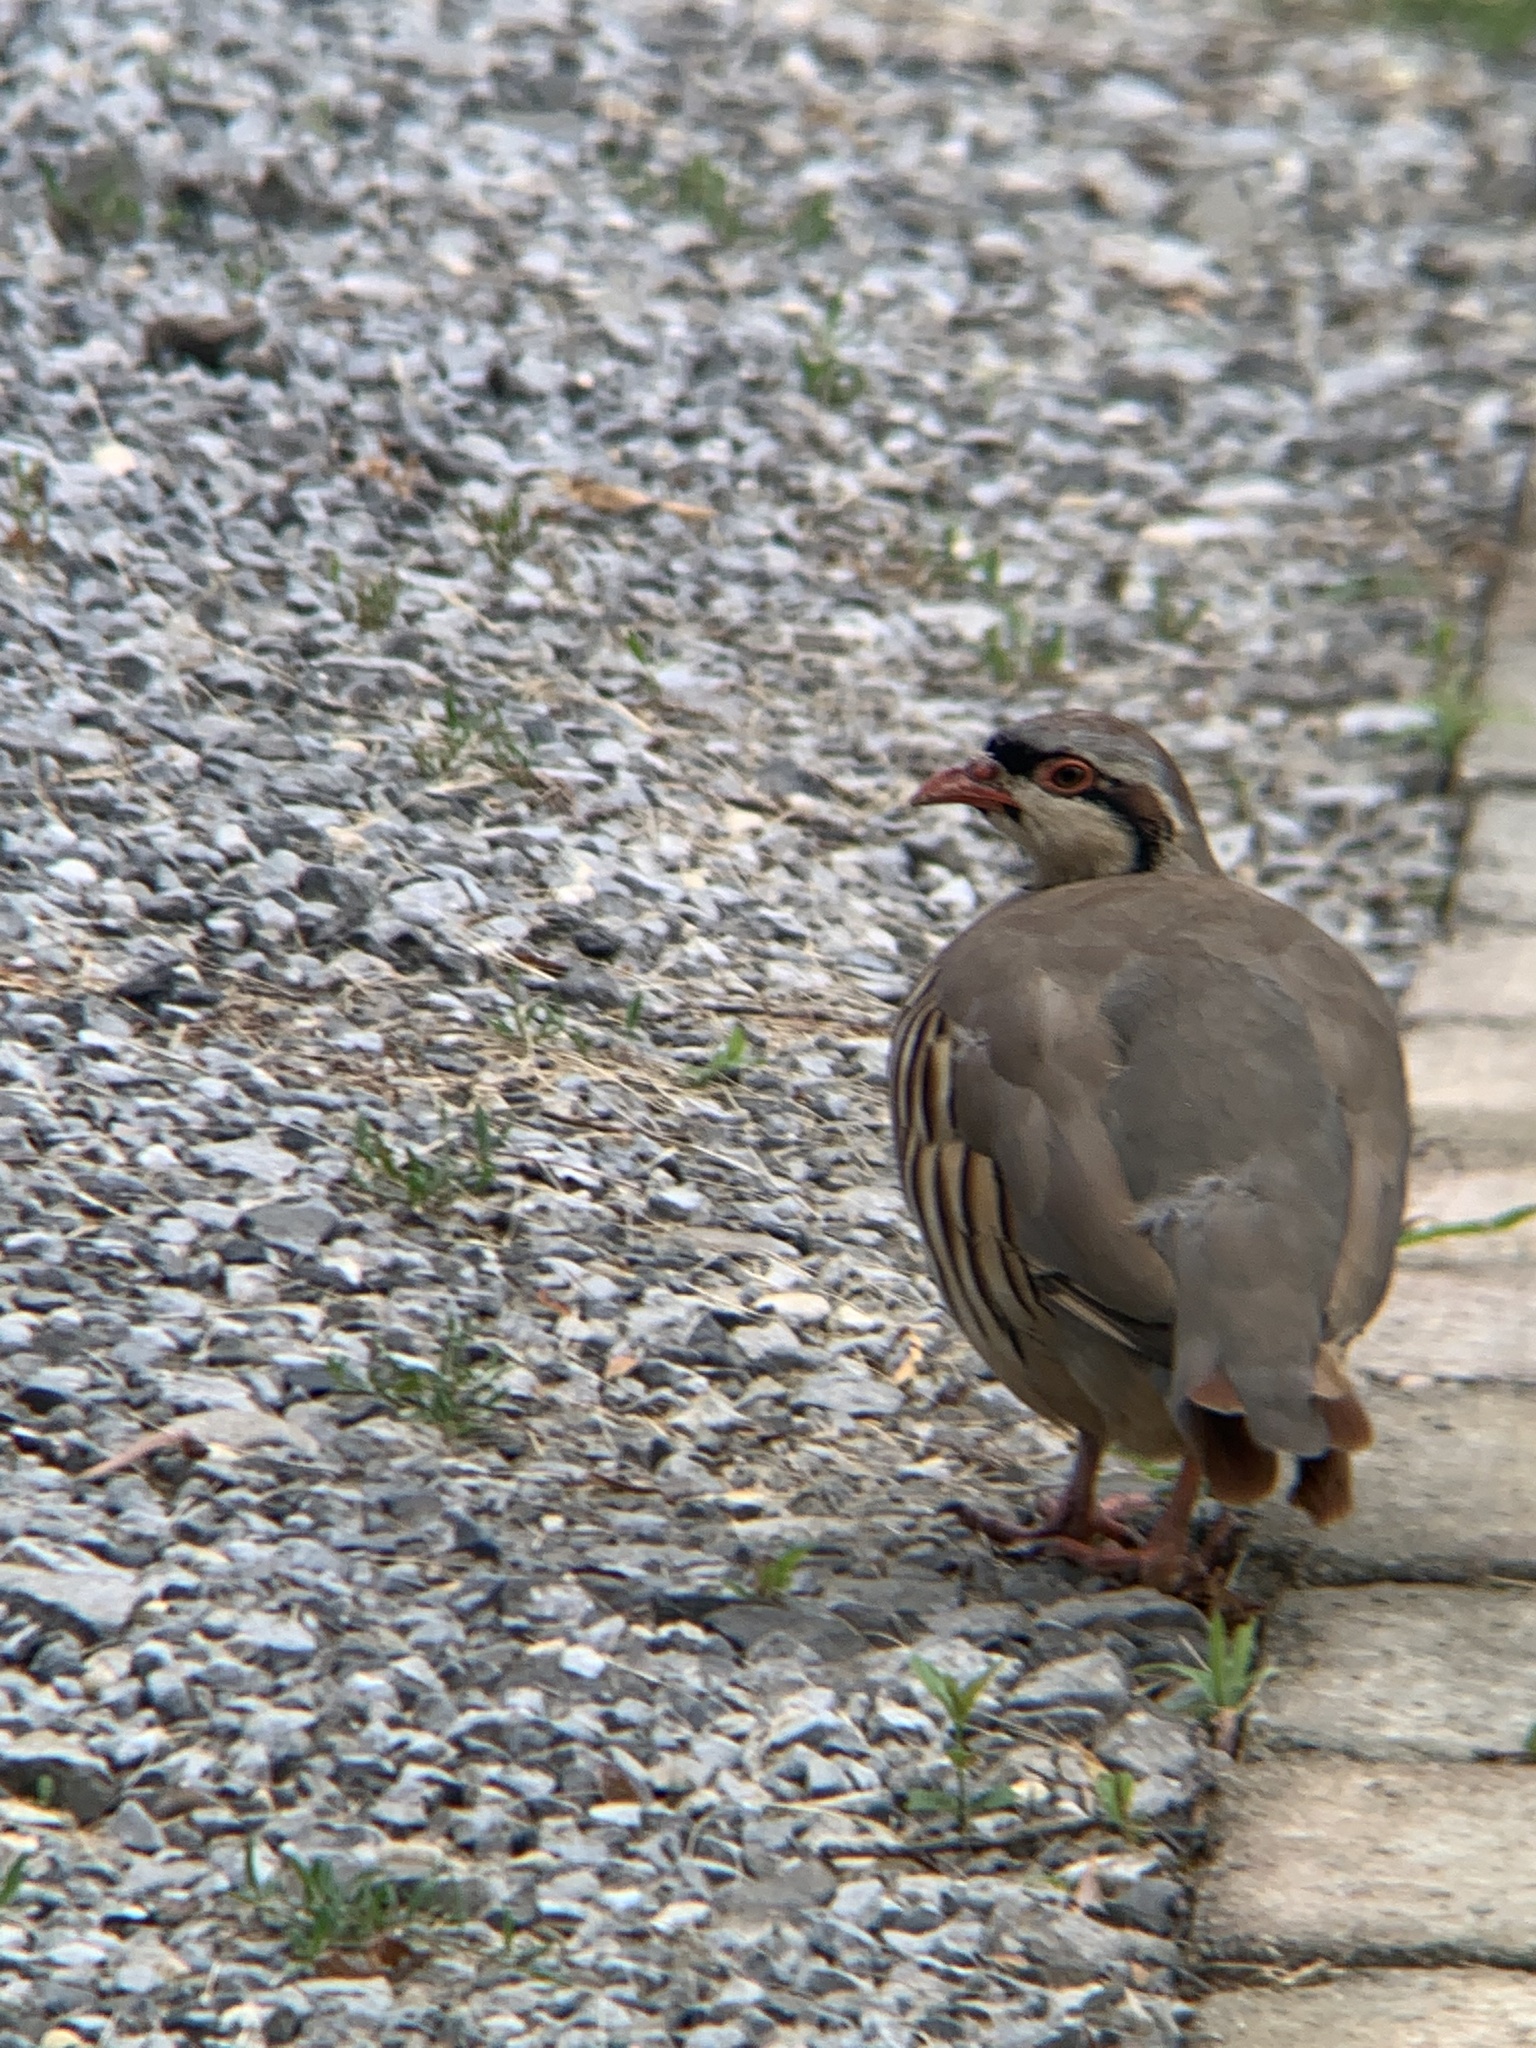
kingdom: Animalia
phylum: Chordata
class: Aves
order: Galliformes
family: Phasianidae
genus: Alectoris
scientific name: Alectoris chukar
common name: Chukar
